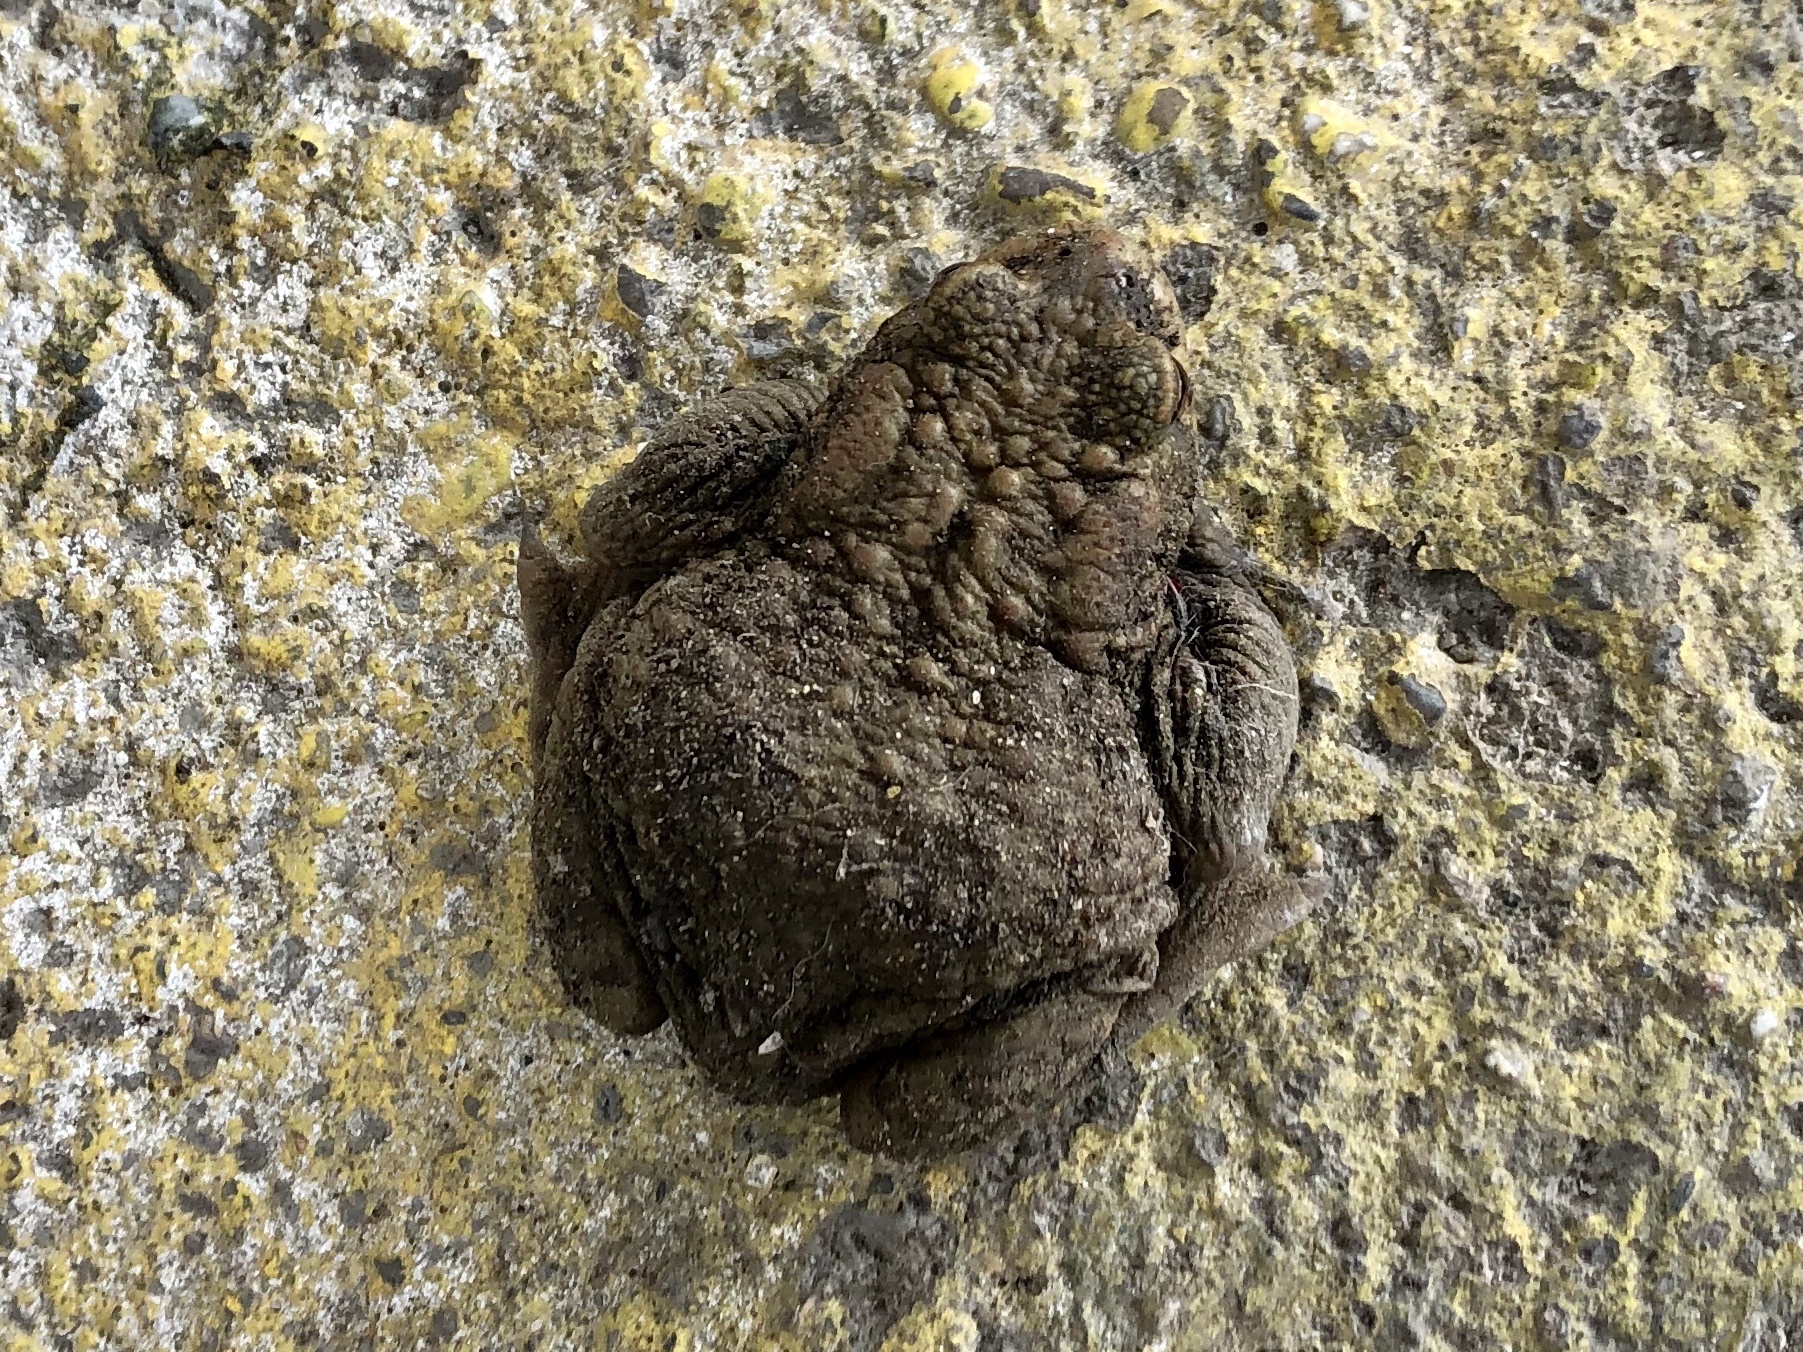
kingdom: Animalia
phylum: Chordata
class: Amphibia
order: Anura
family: Bufonidae
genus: Bufo
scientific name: Bufo bufo
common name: Common toad
